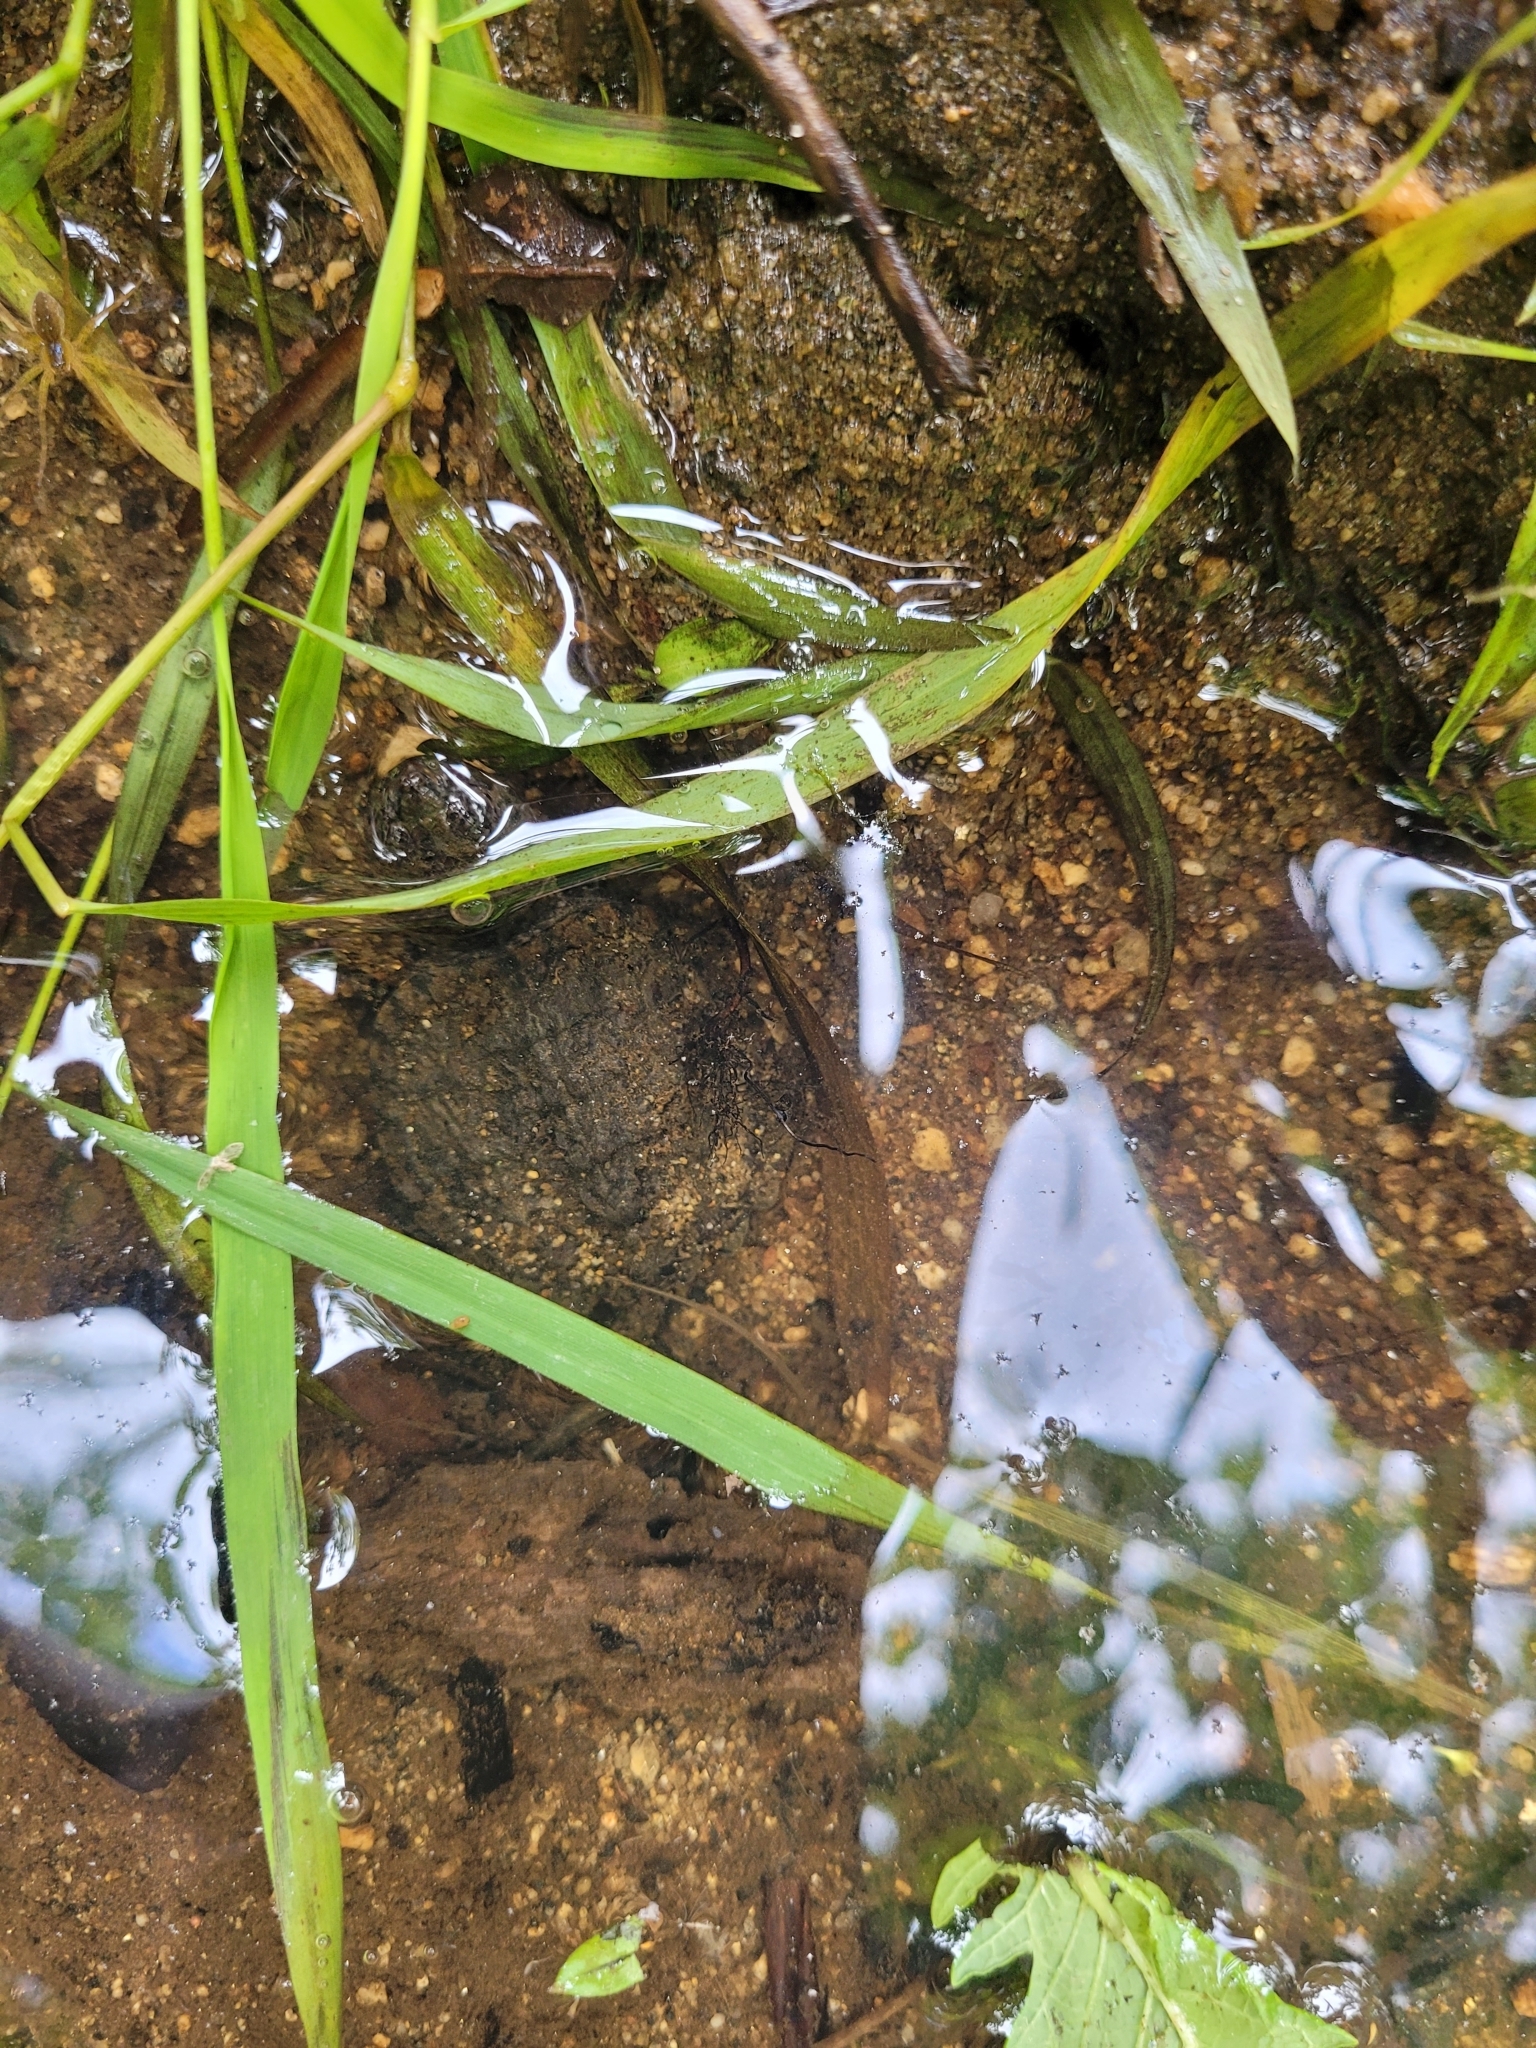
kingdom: Animalia
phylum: Chordata
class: Testudines
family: Chelydridae
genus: Chelydra
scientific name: Chelydra serpentina
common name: Common snapping turtle
